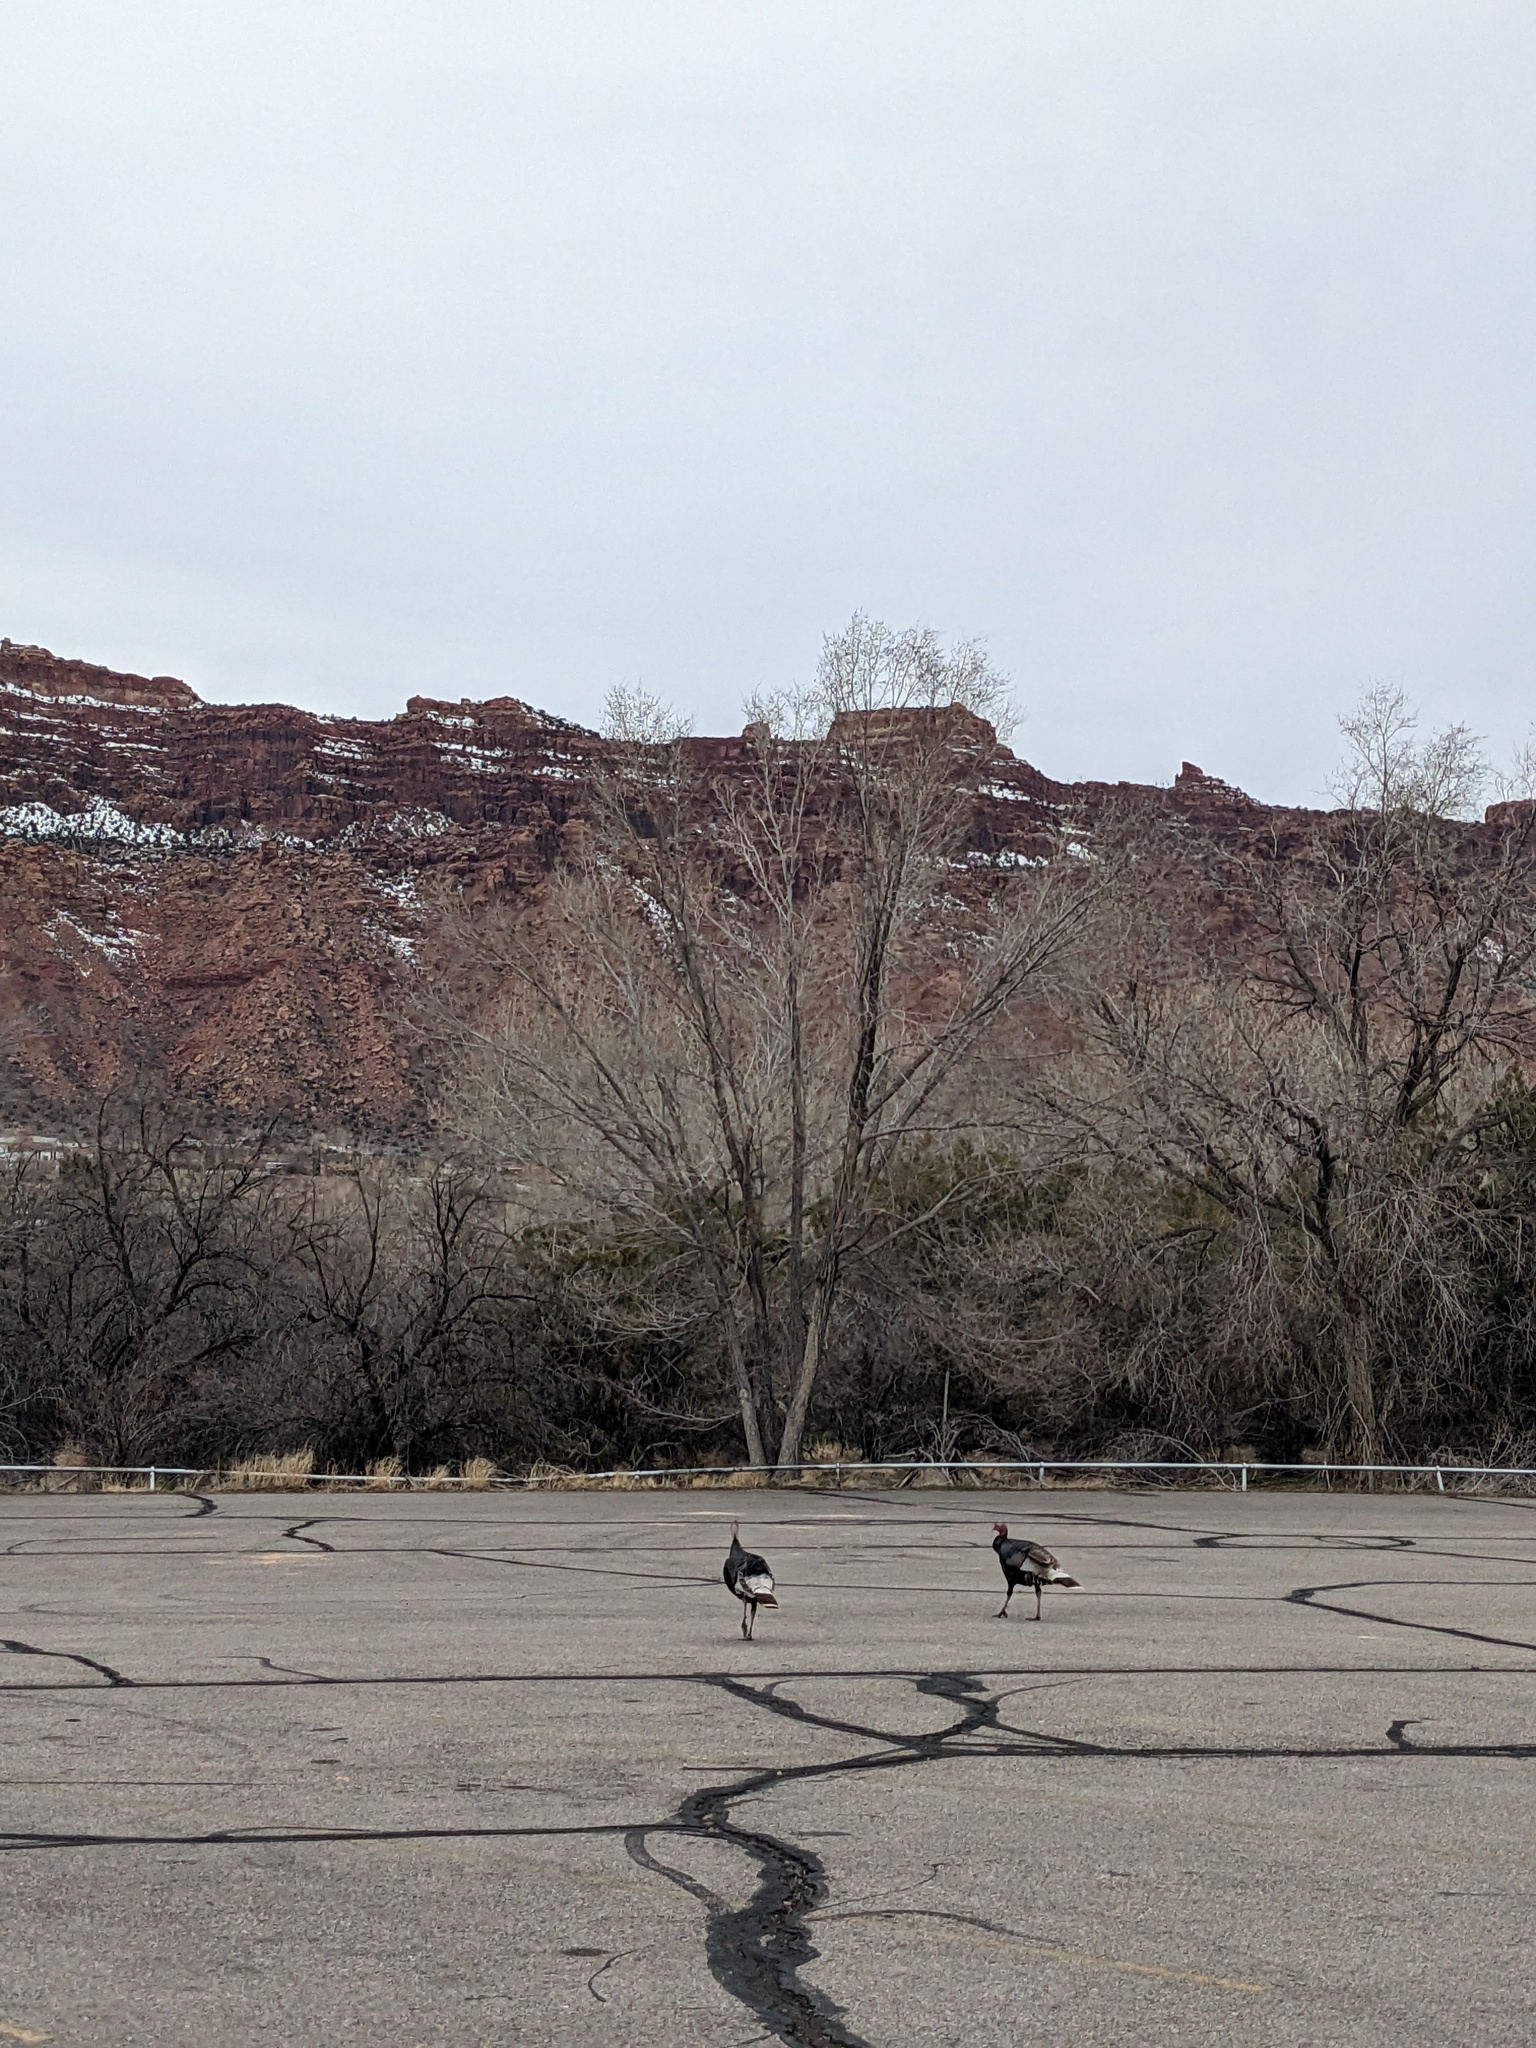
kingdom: Animalia
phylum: Chordata
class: Aves
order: Galliformes
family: Phasianidae
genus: Meleagris
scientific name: Meleagris gallopavo
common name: Wild turkey
